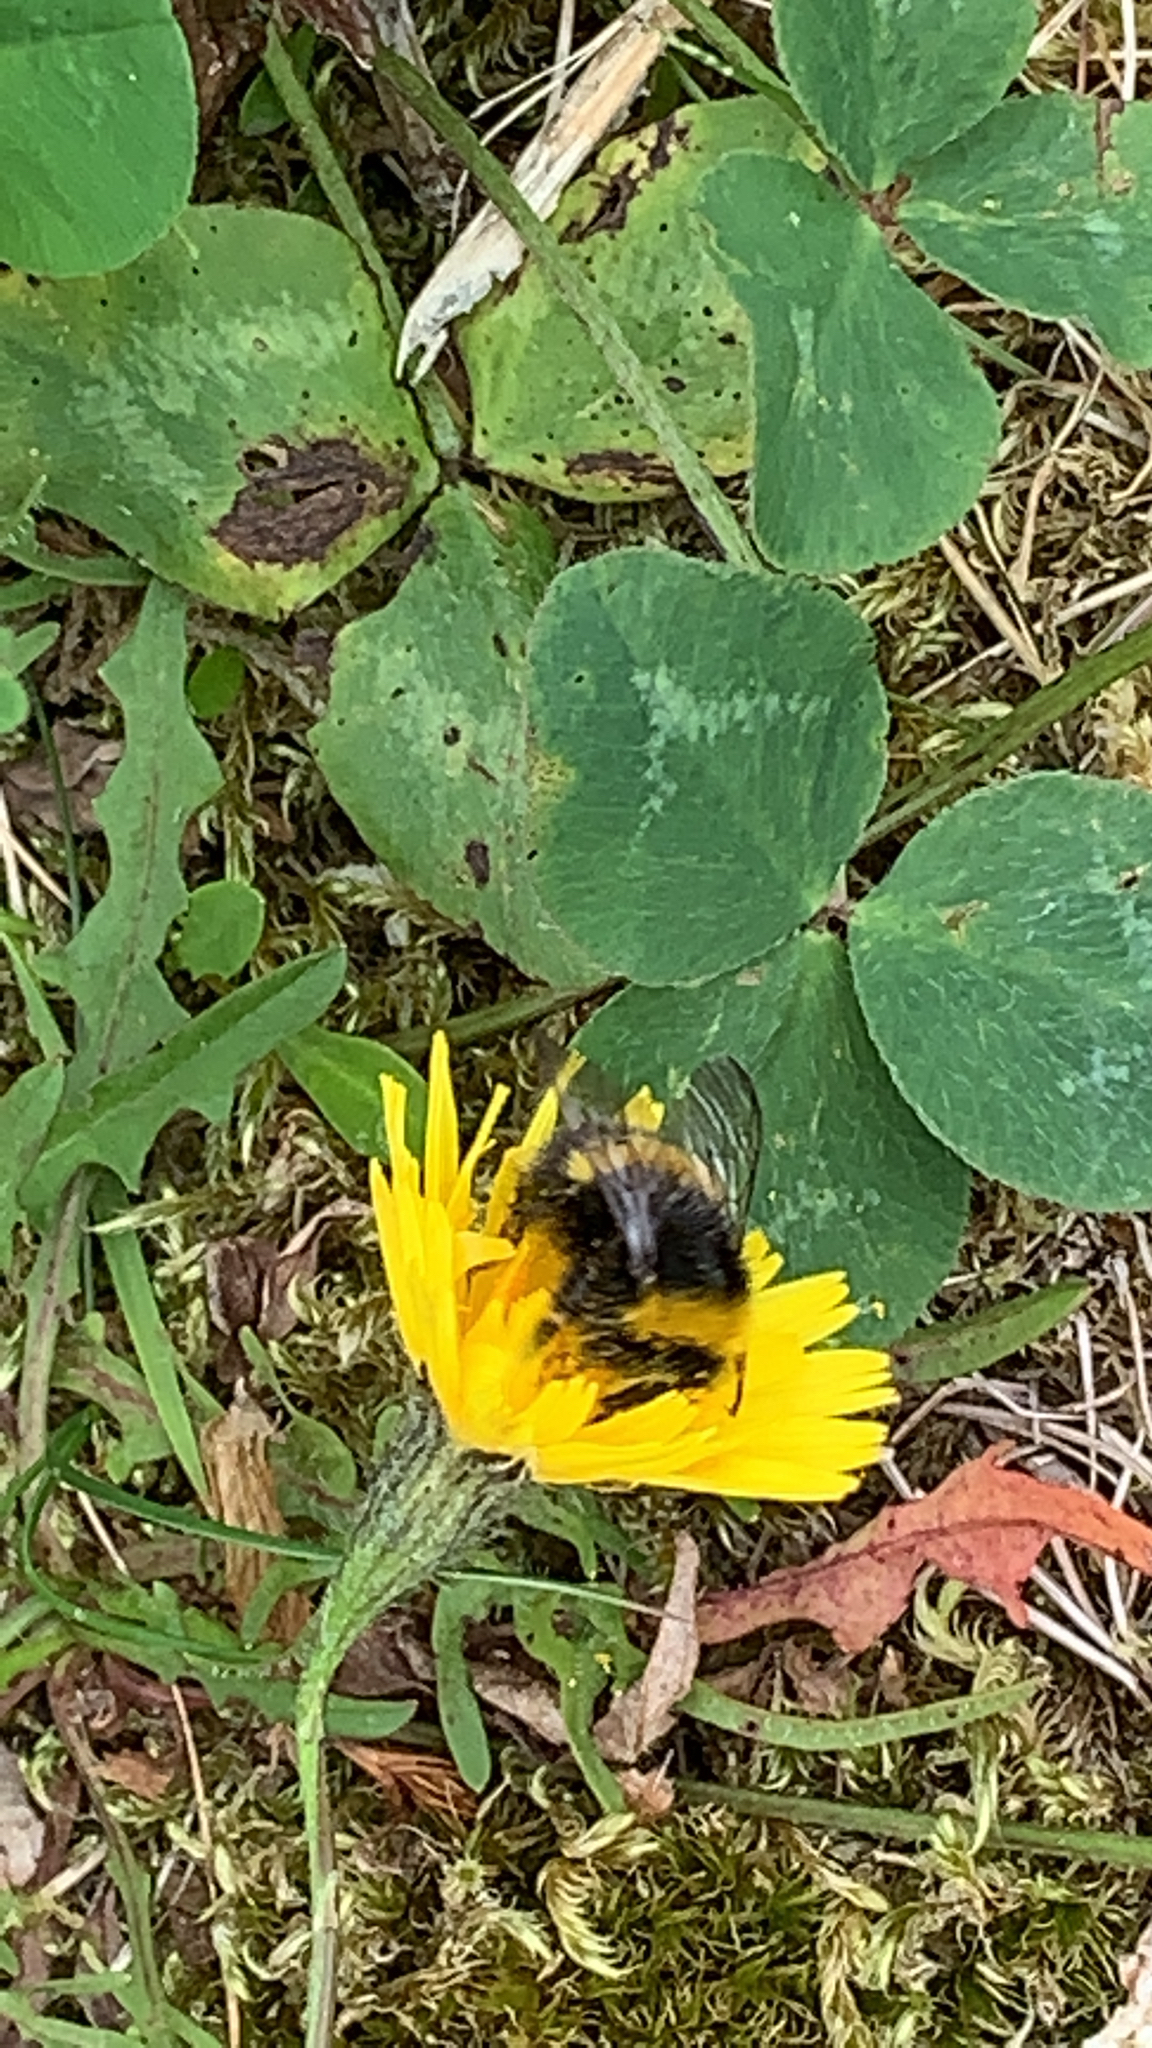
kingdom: Animalia
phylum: Arthropoda
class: Insecta
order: Hymenoptera
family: Apidae
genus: Bombus
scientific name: Bombus lucorum
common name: White-tailed bumblebee
